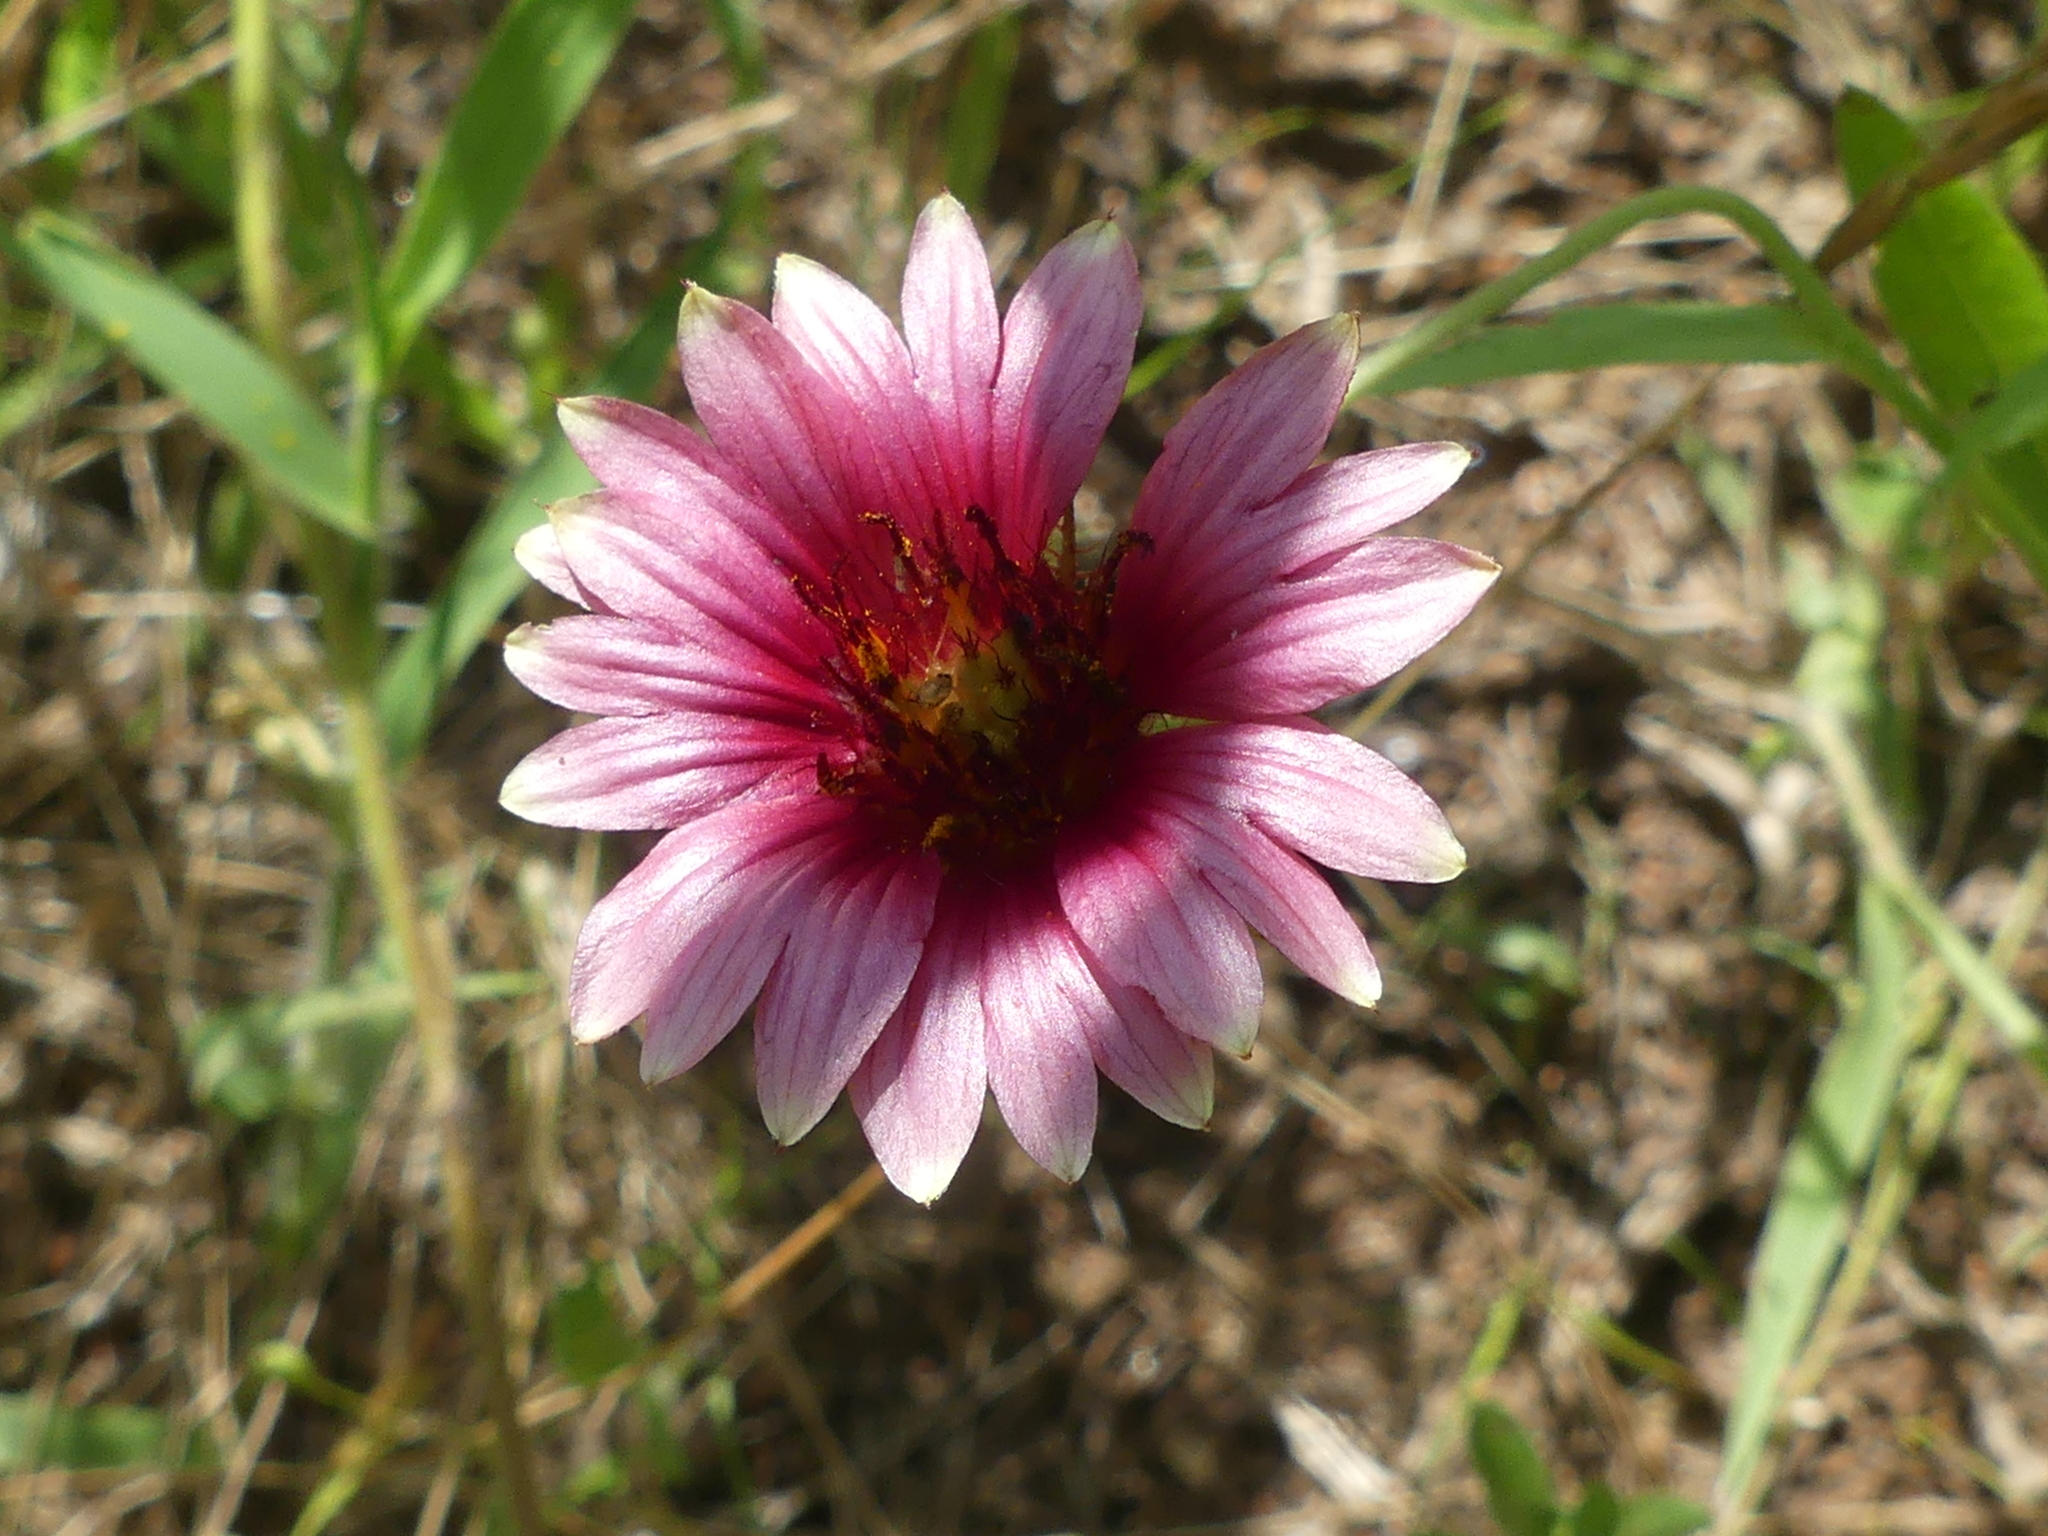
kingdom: Plantae
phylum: Tracheophyta
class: Magnoliopsida
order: Asterales
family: Asteraceae
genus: Gaillardia
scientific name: Gaillardia pulchella
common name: Firewheel
